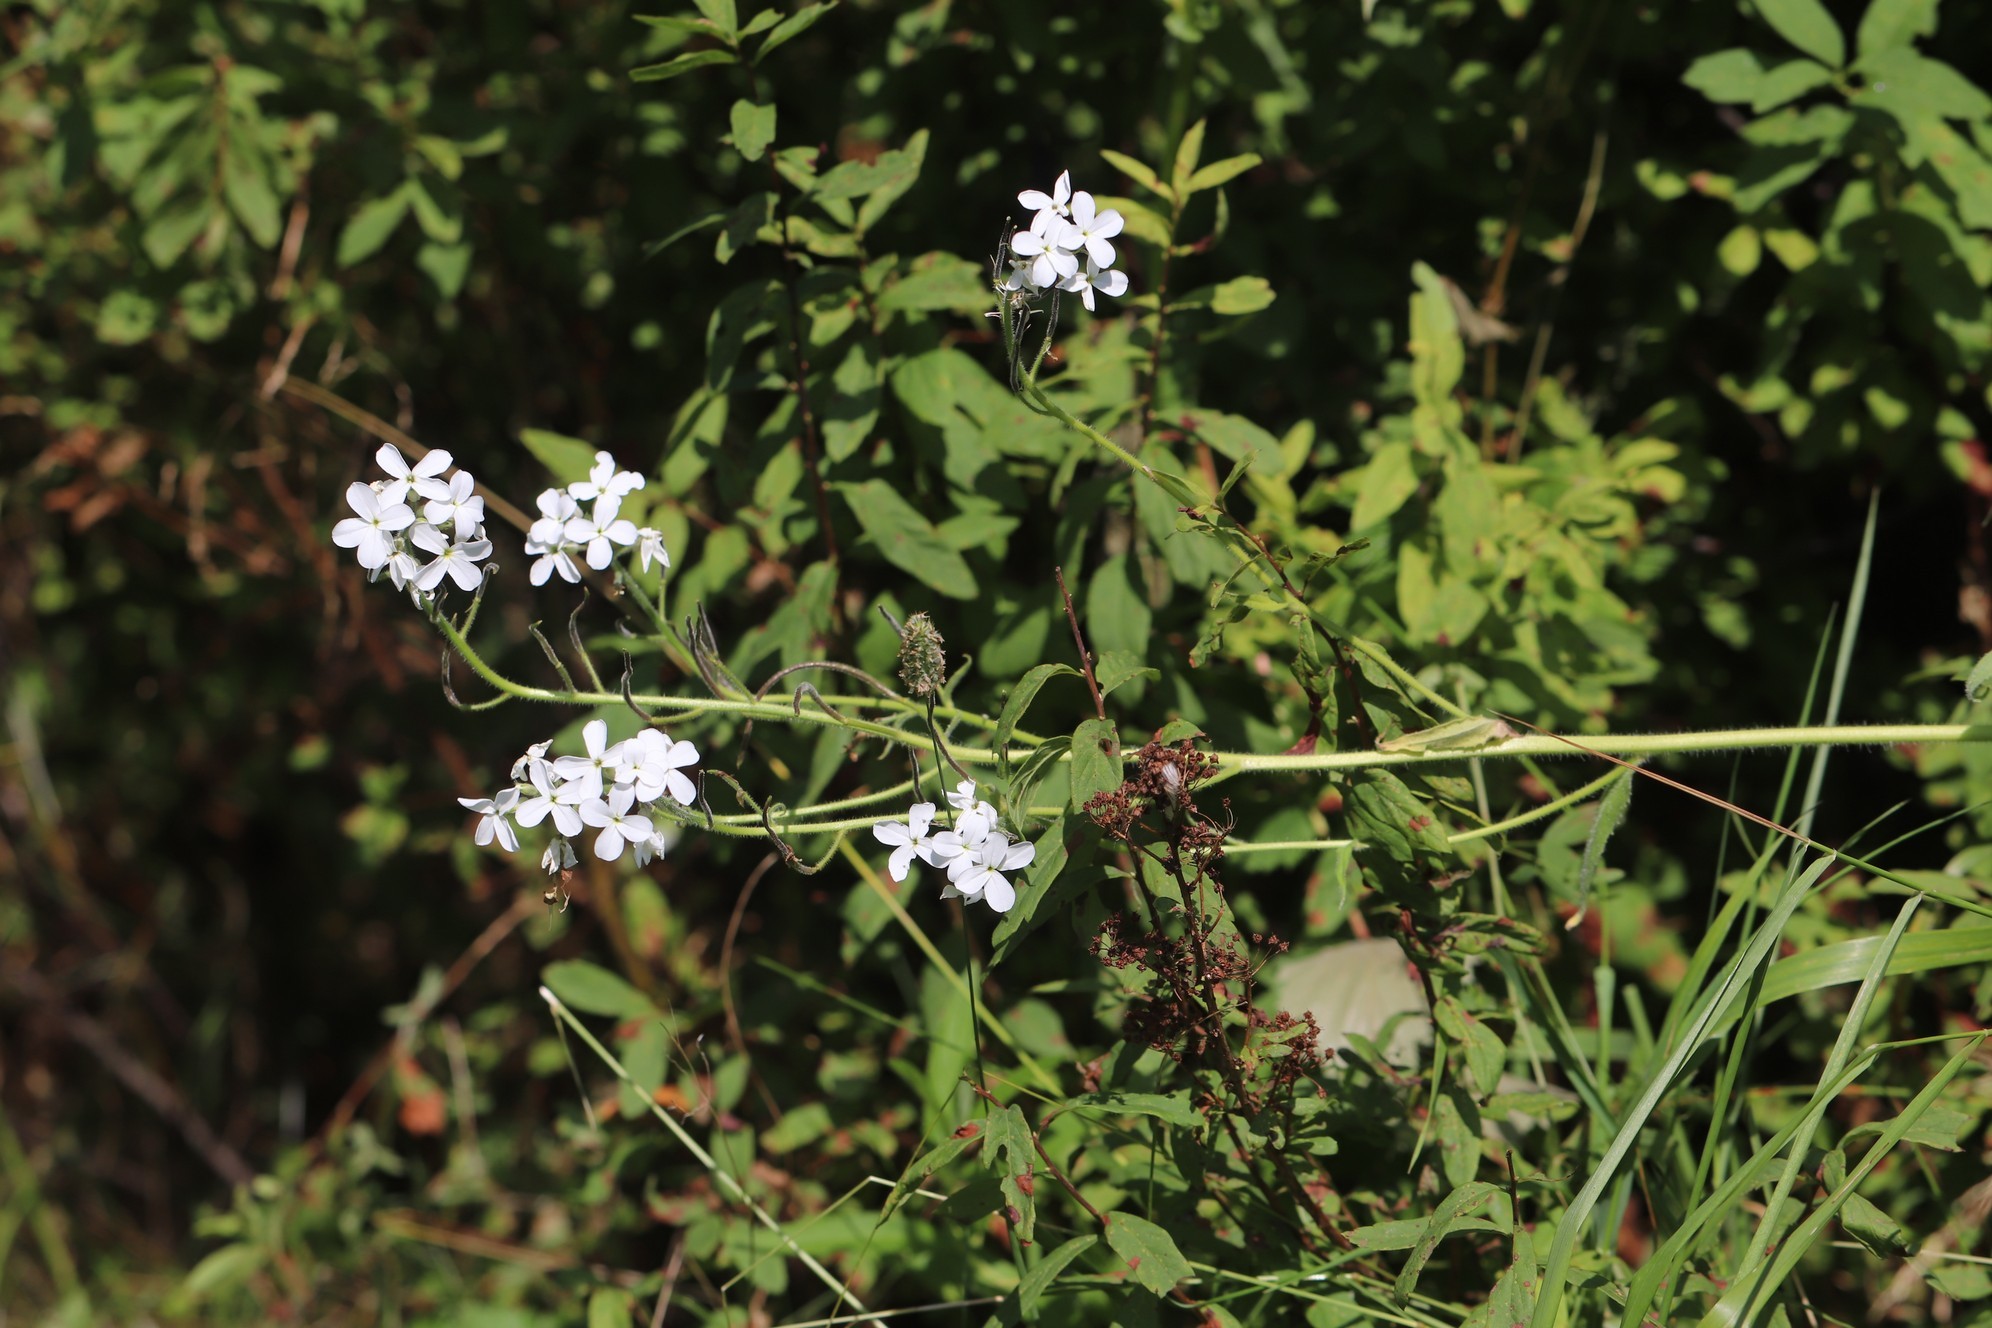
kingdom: Plantae
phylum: Tracheophyta
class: Magnoliopsida
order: Brassicales
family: Brassicaceae
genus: Hesperis
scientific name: Hesperis sibirica
